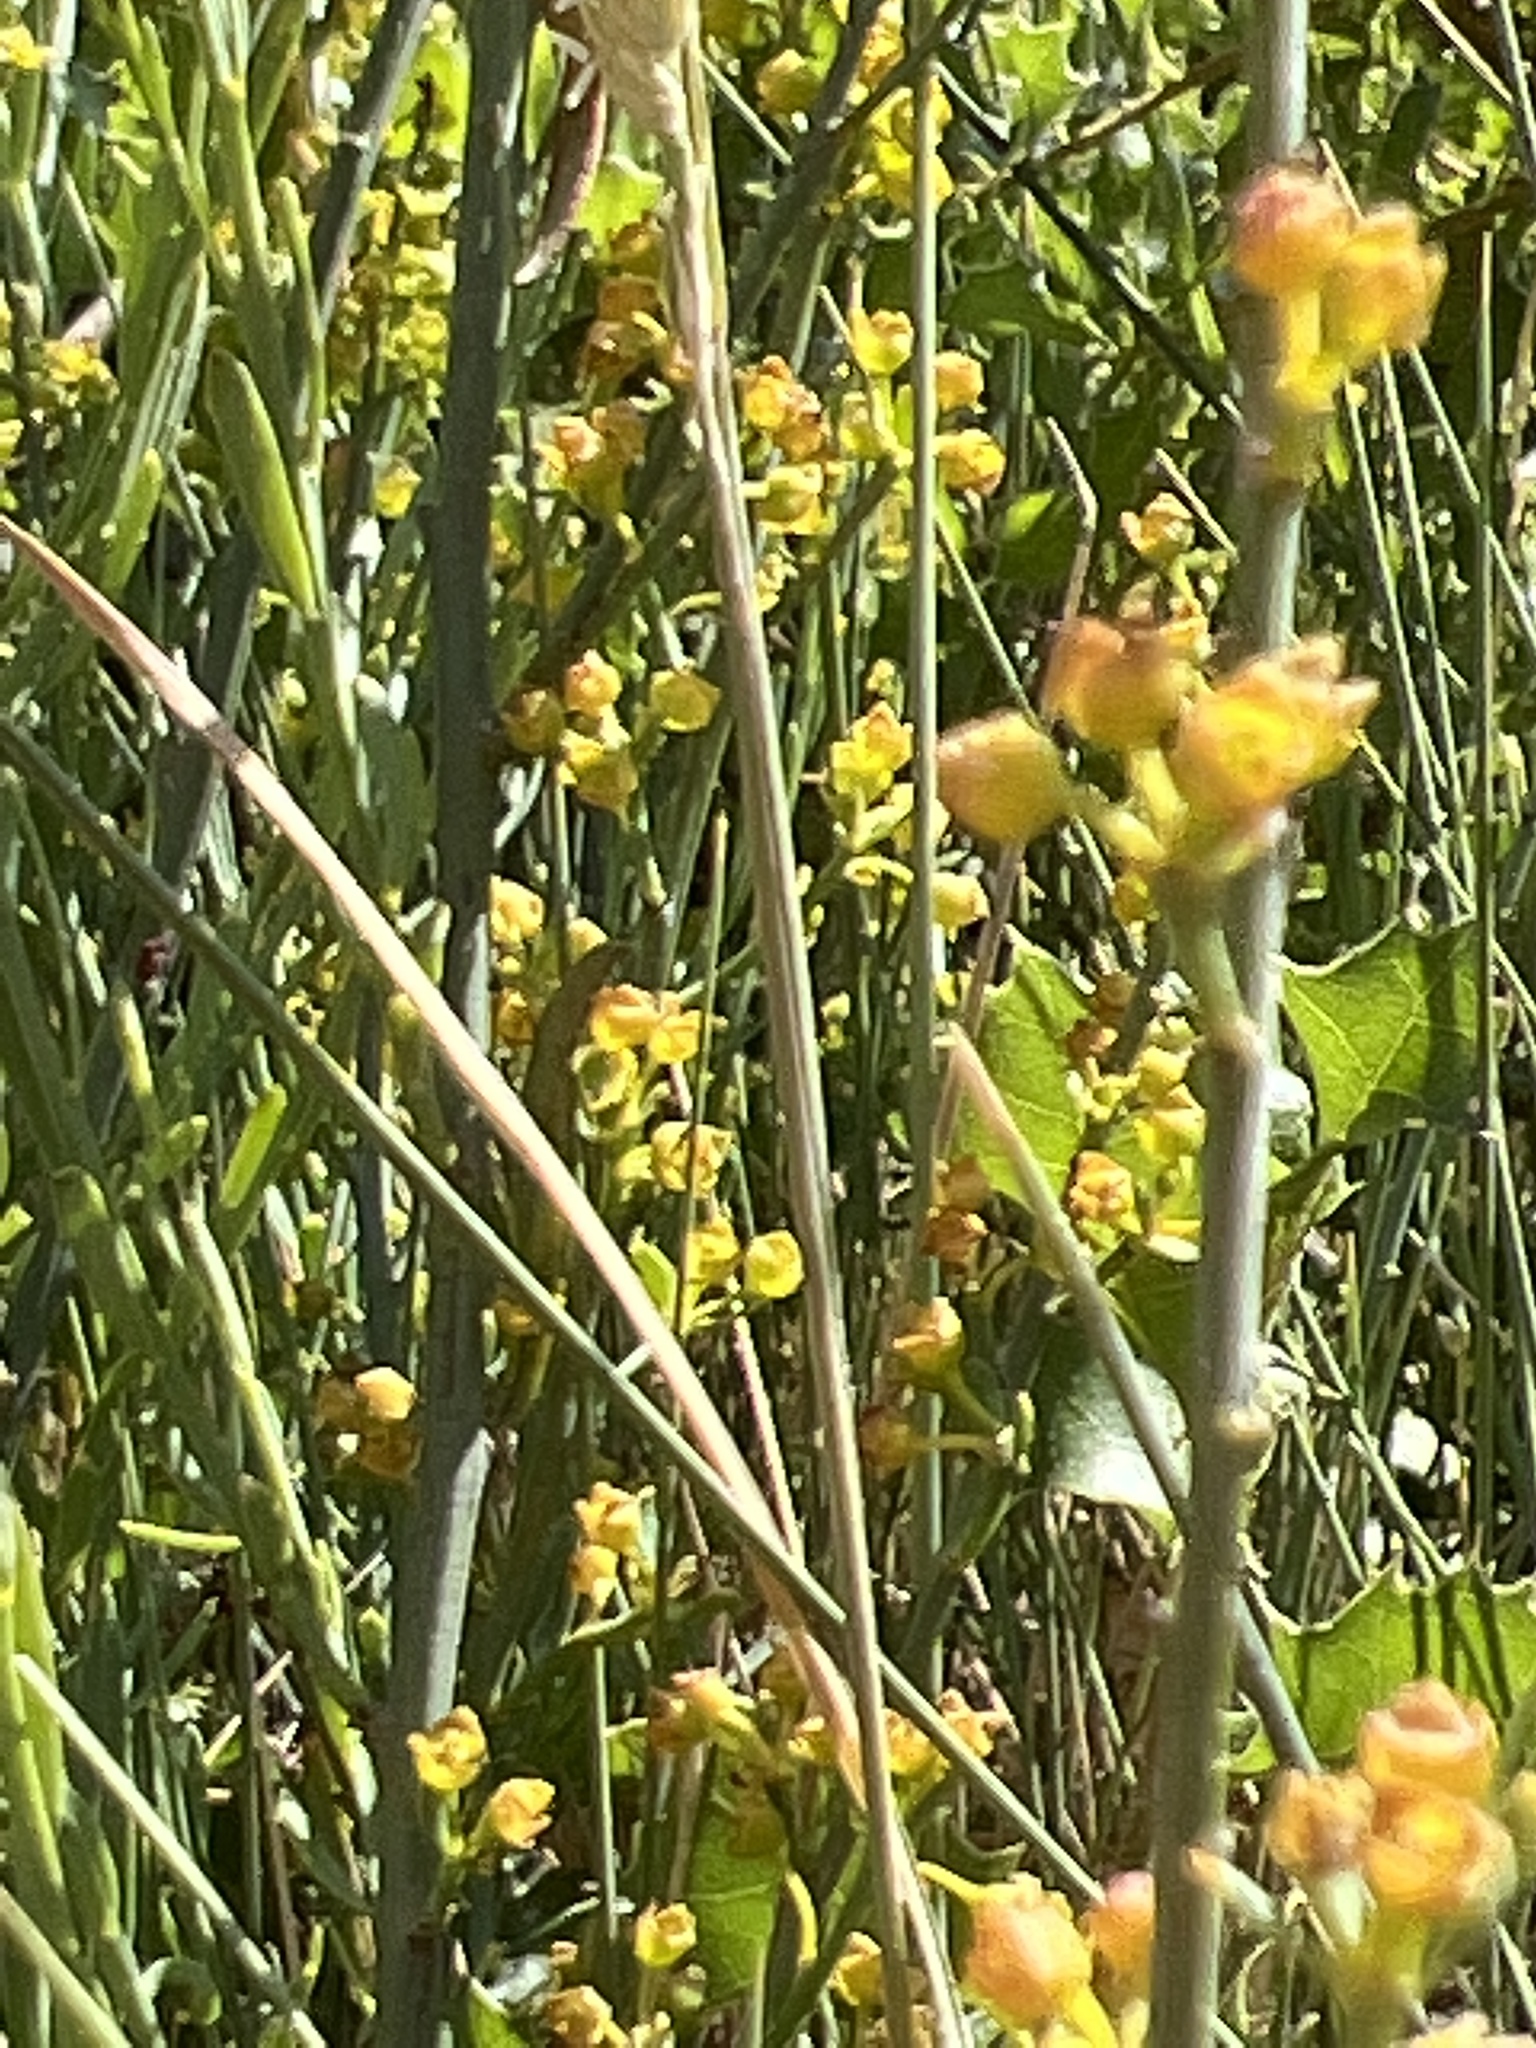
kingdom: Plantae
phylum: Tracheophyta
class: Magnoliopsida
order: Santalales
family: Santalaceae
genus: Osyris
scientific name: Osyris alba
